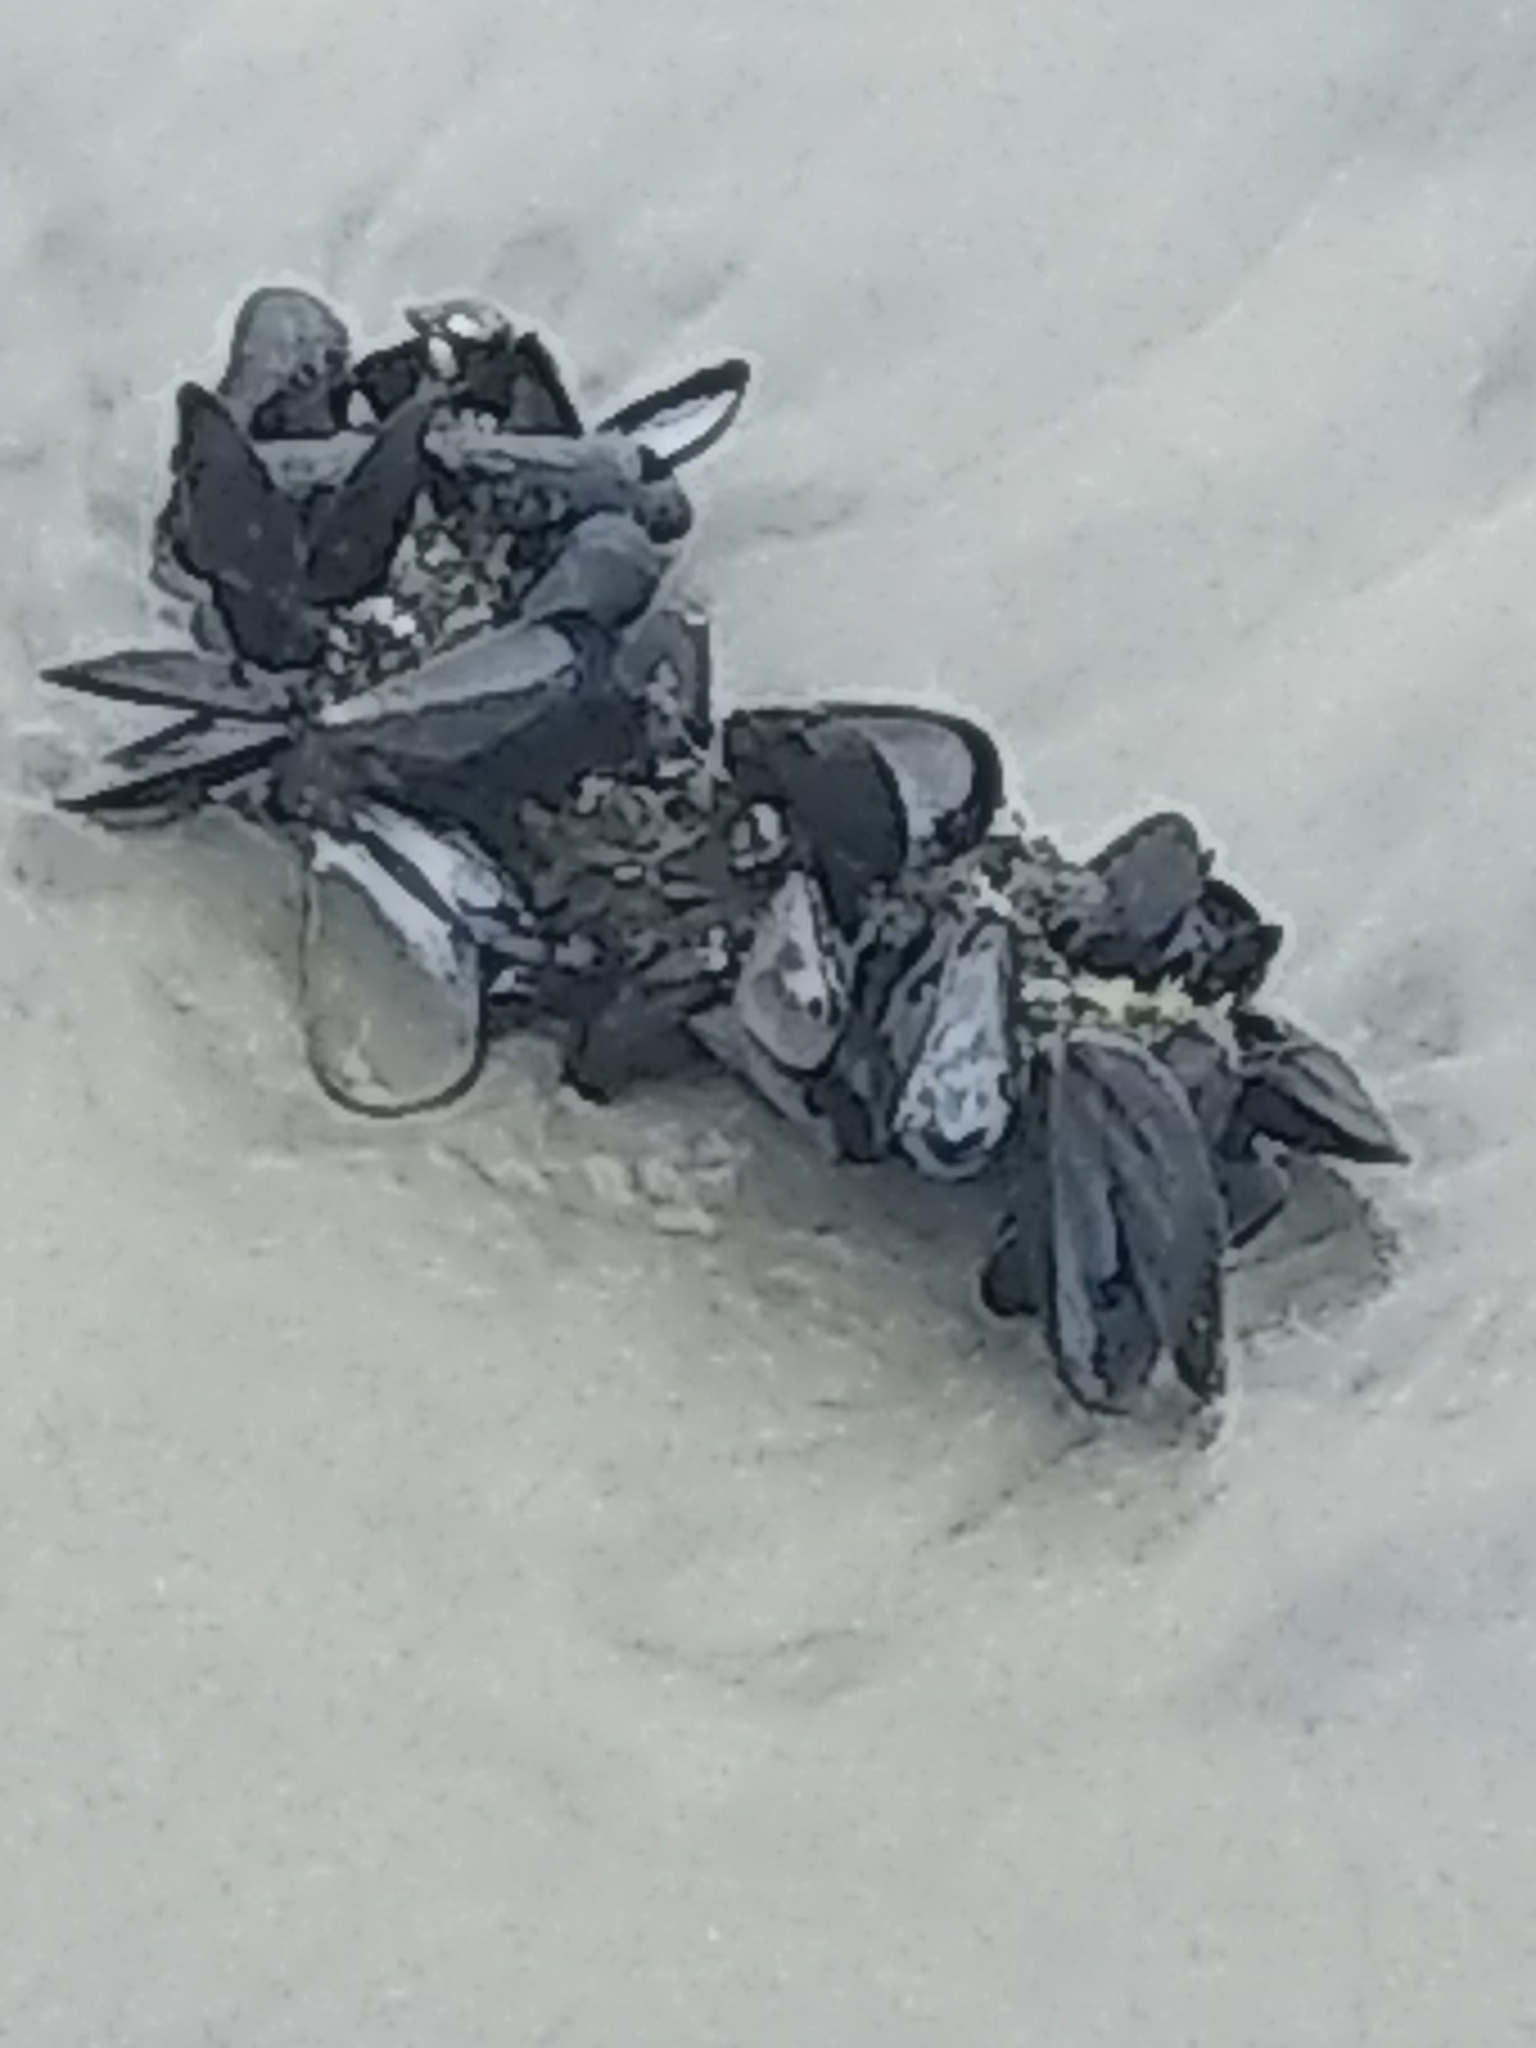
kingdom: Animalia
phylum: Mollusca
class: Bivalvia
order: Mytilida
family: Mytilidae
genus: Mytilus
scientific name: Mytilus edulis
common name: Blue mussel
